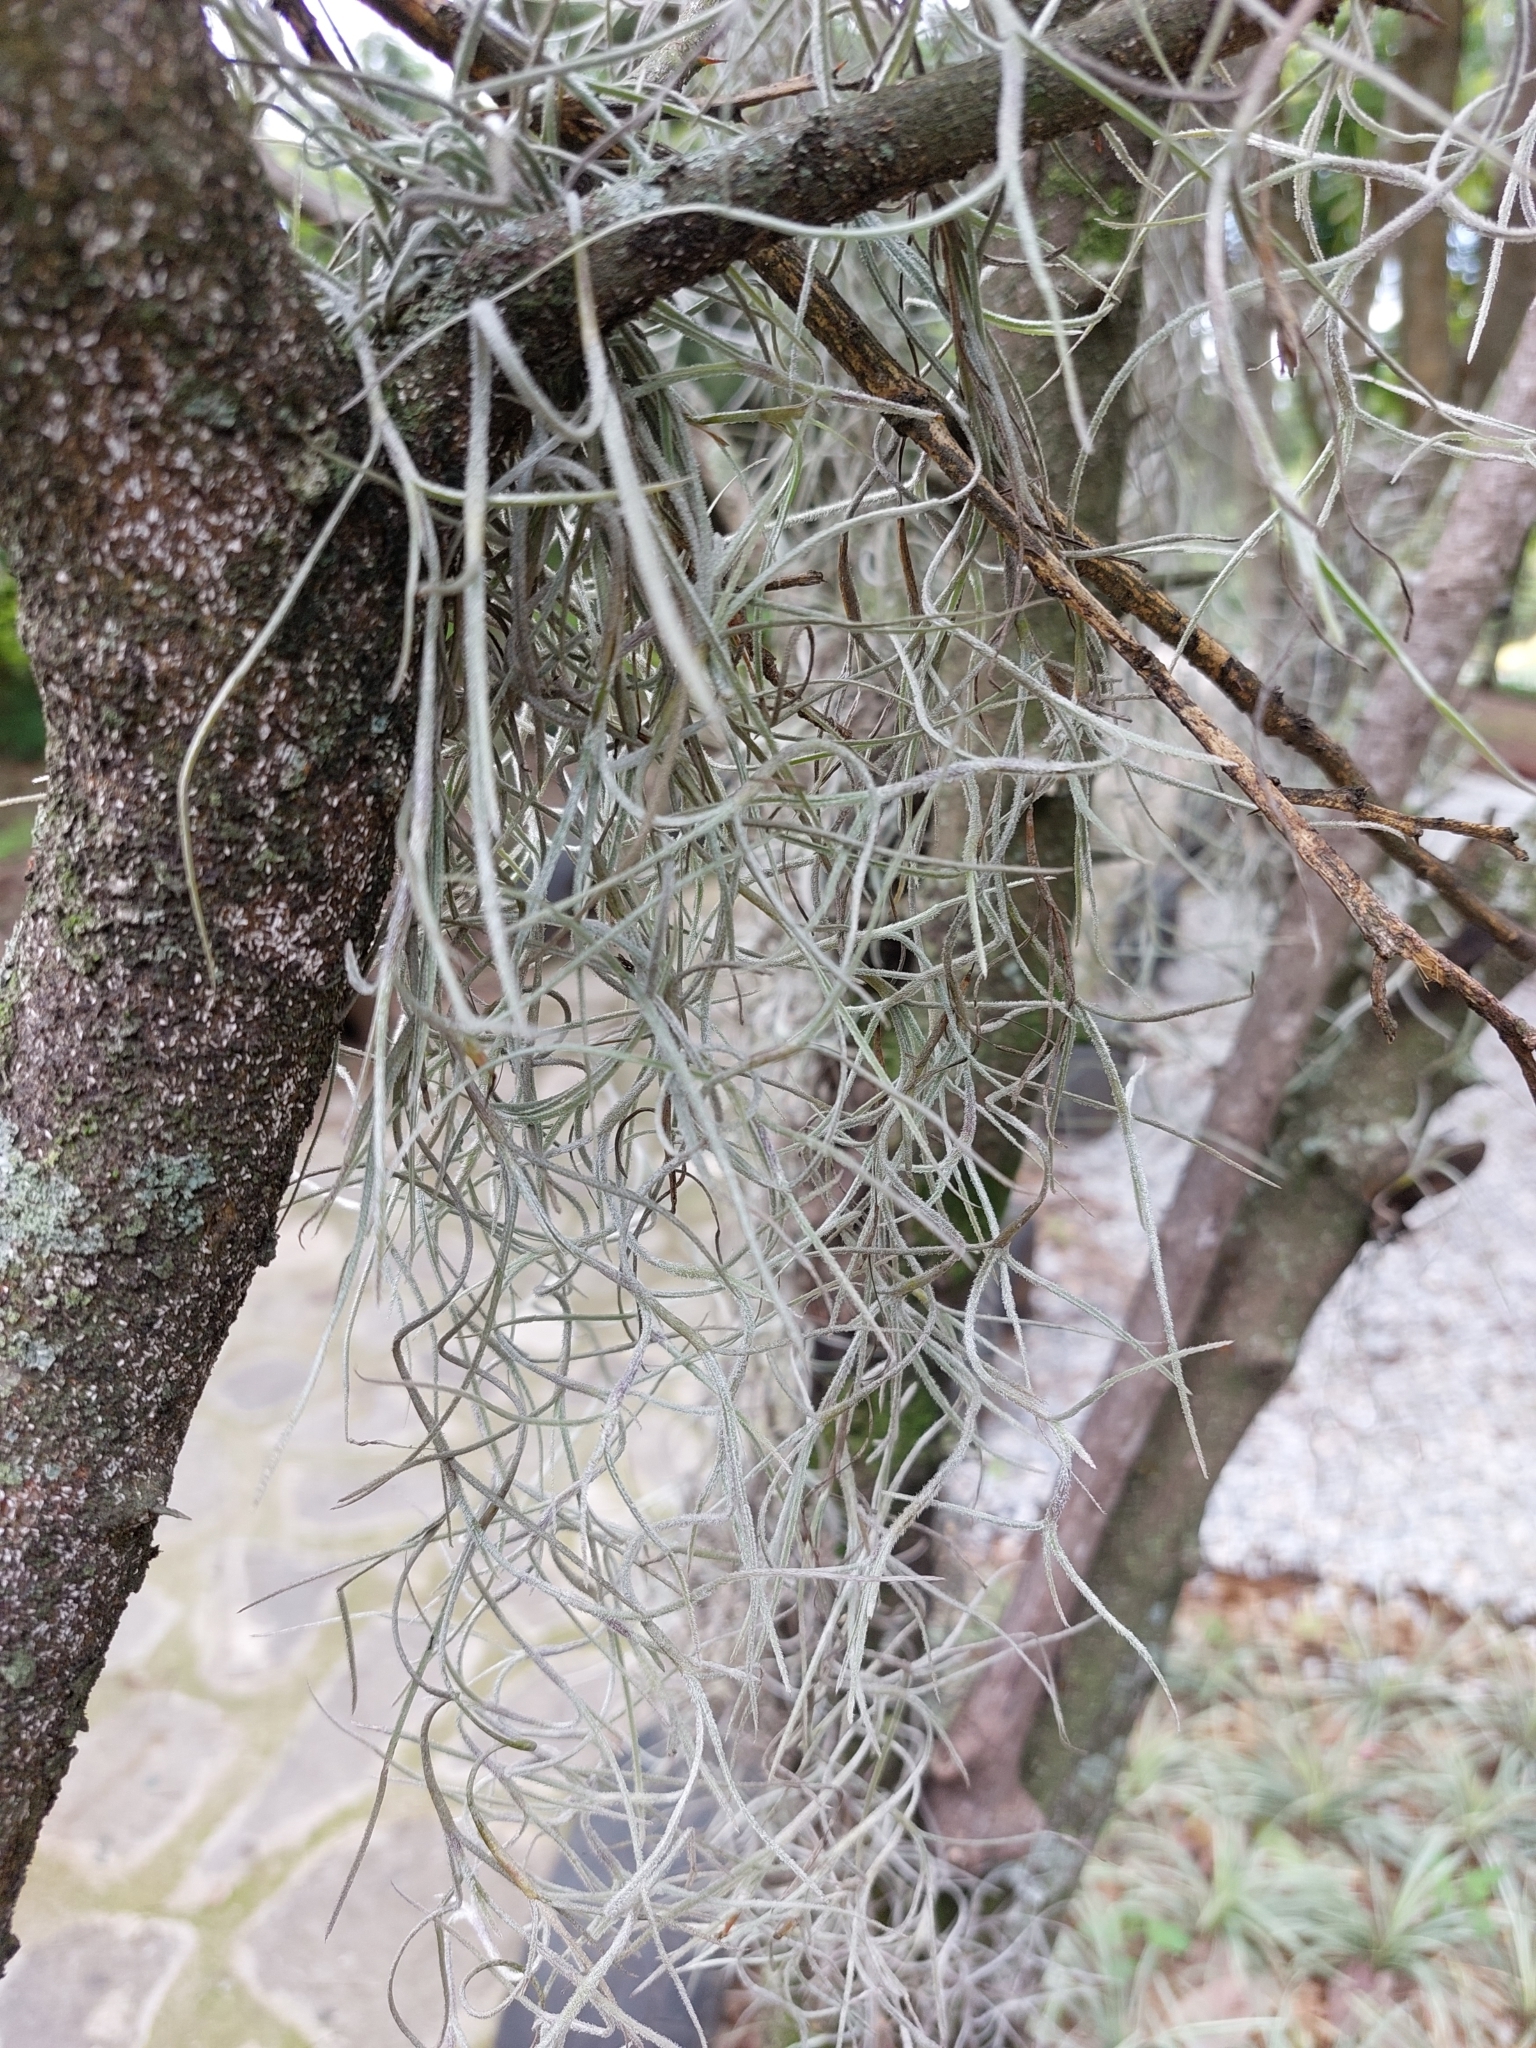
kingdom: Plantae
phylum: Tracheophyta
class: Liliopsida
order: Poales
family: Bromeliaceae
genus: Tillandsia
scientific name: Tillandsia usneoides
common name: Spanish moss
